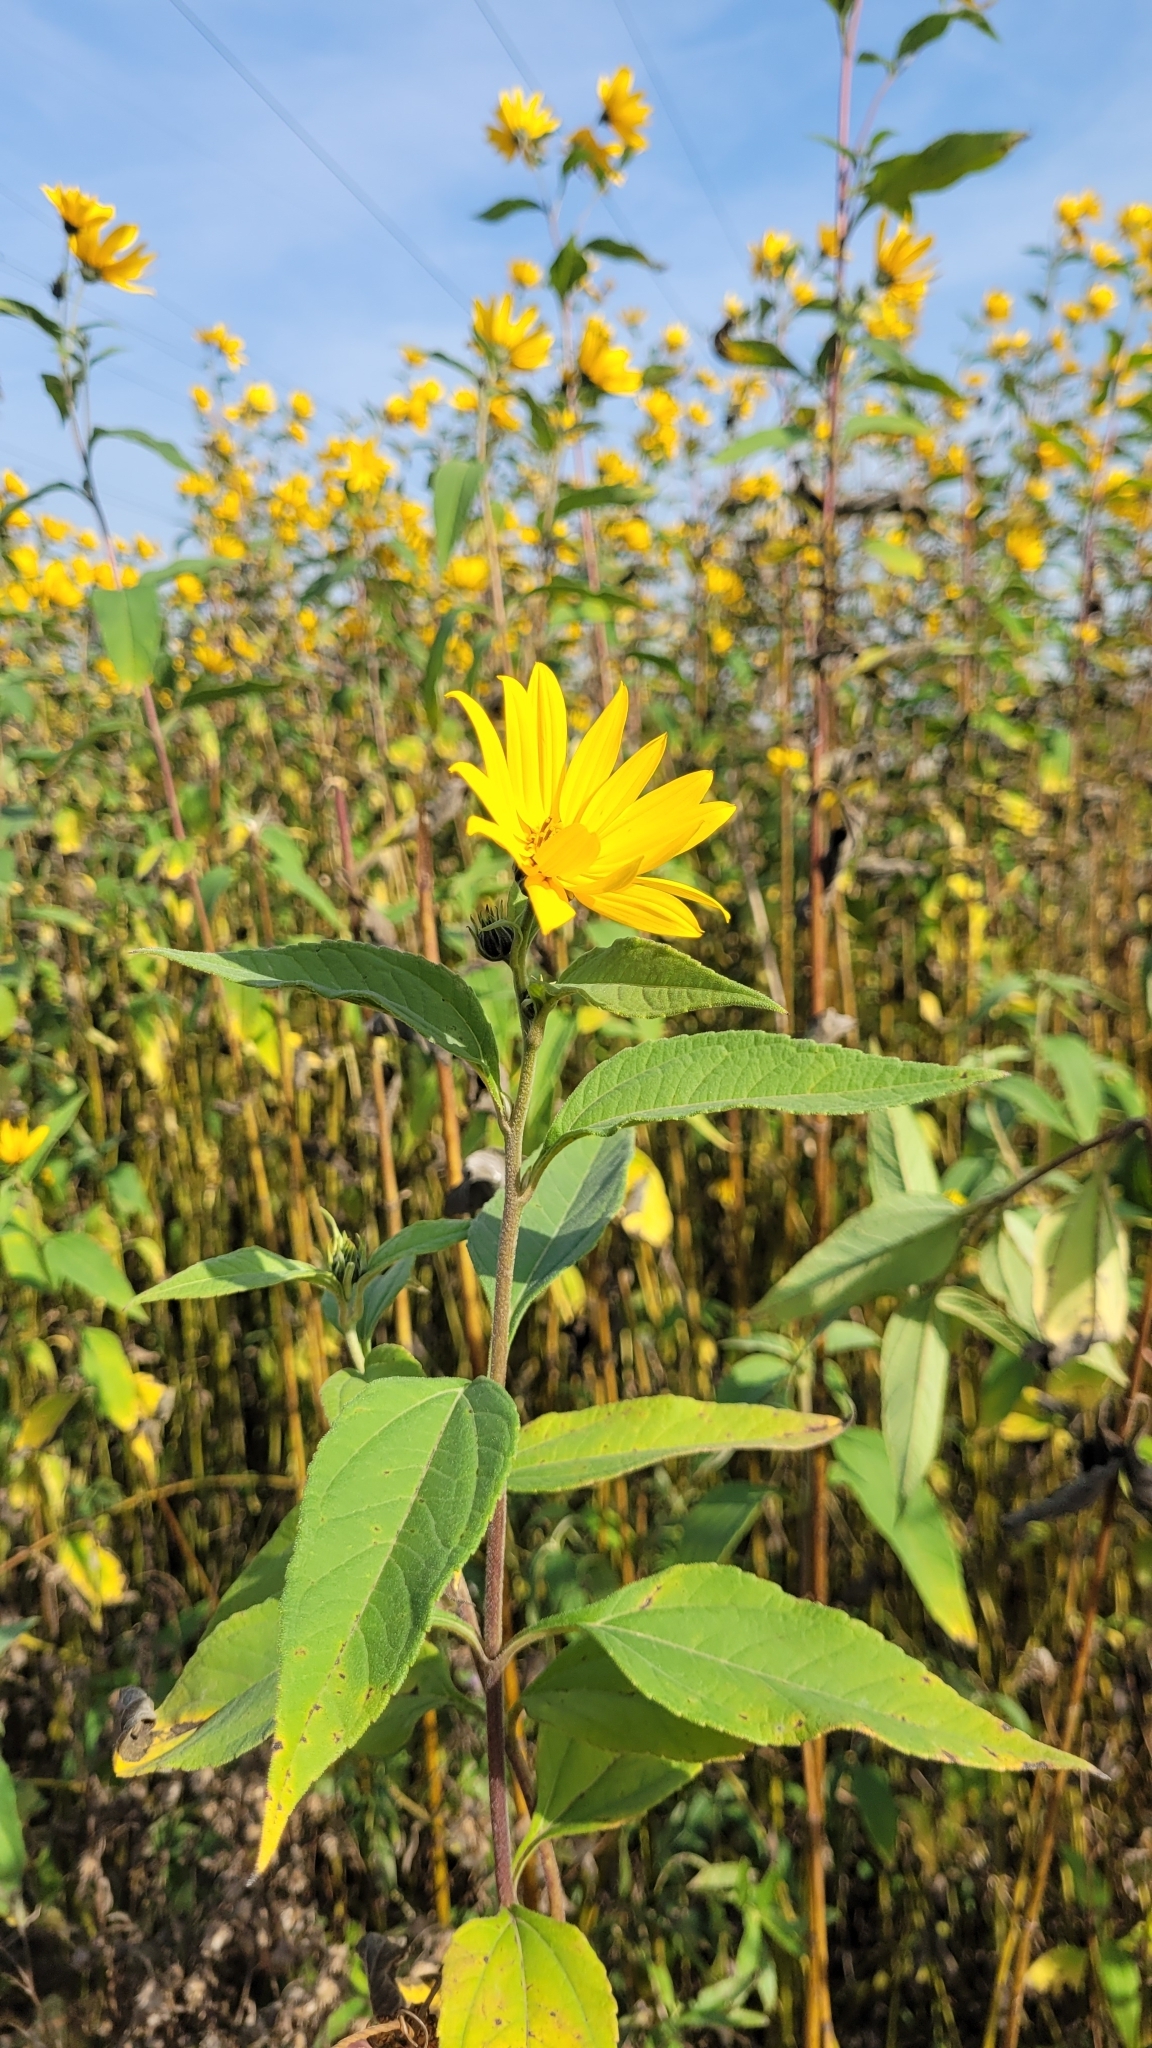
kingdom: Plantae
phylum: Tracheophyta
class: Magnoliopsida
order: Asterales
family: Asteraceae
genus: Helianthus
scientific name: Helianthus tuberosus
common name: Jerusalem artichoke
